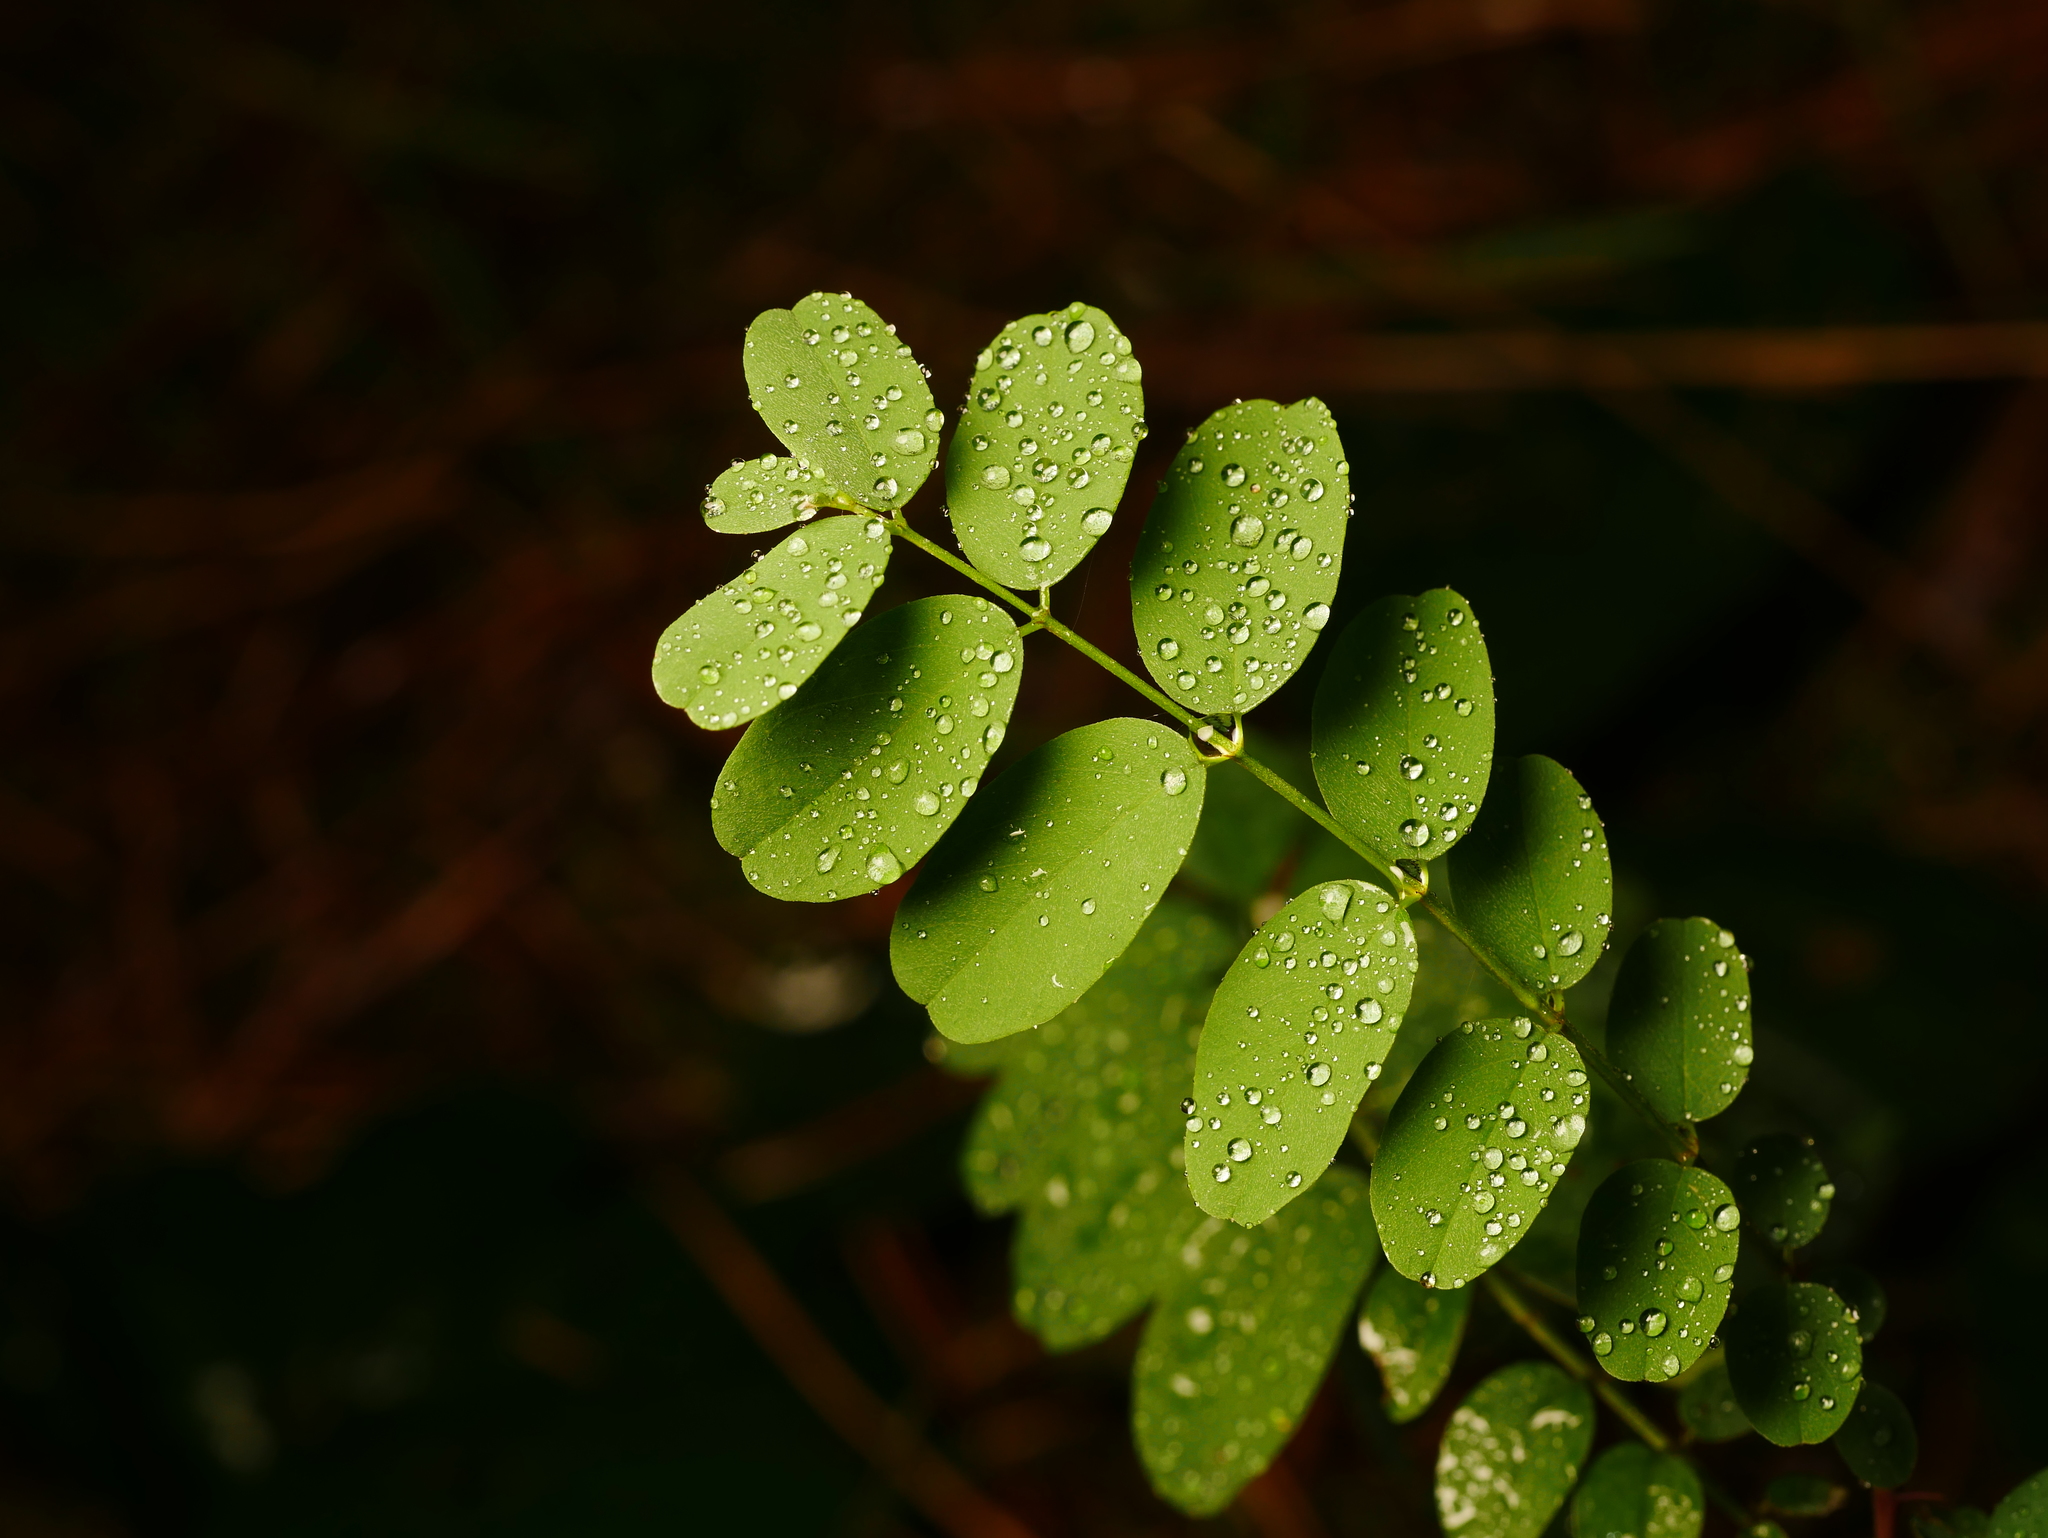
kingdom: Plantae
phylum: Tracheophyta
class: Magnoliopsida
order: Fabales
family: Fabaceae
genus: Robinia
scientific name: Robinia pseudoacacia
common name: Black locust
